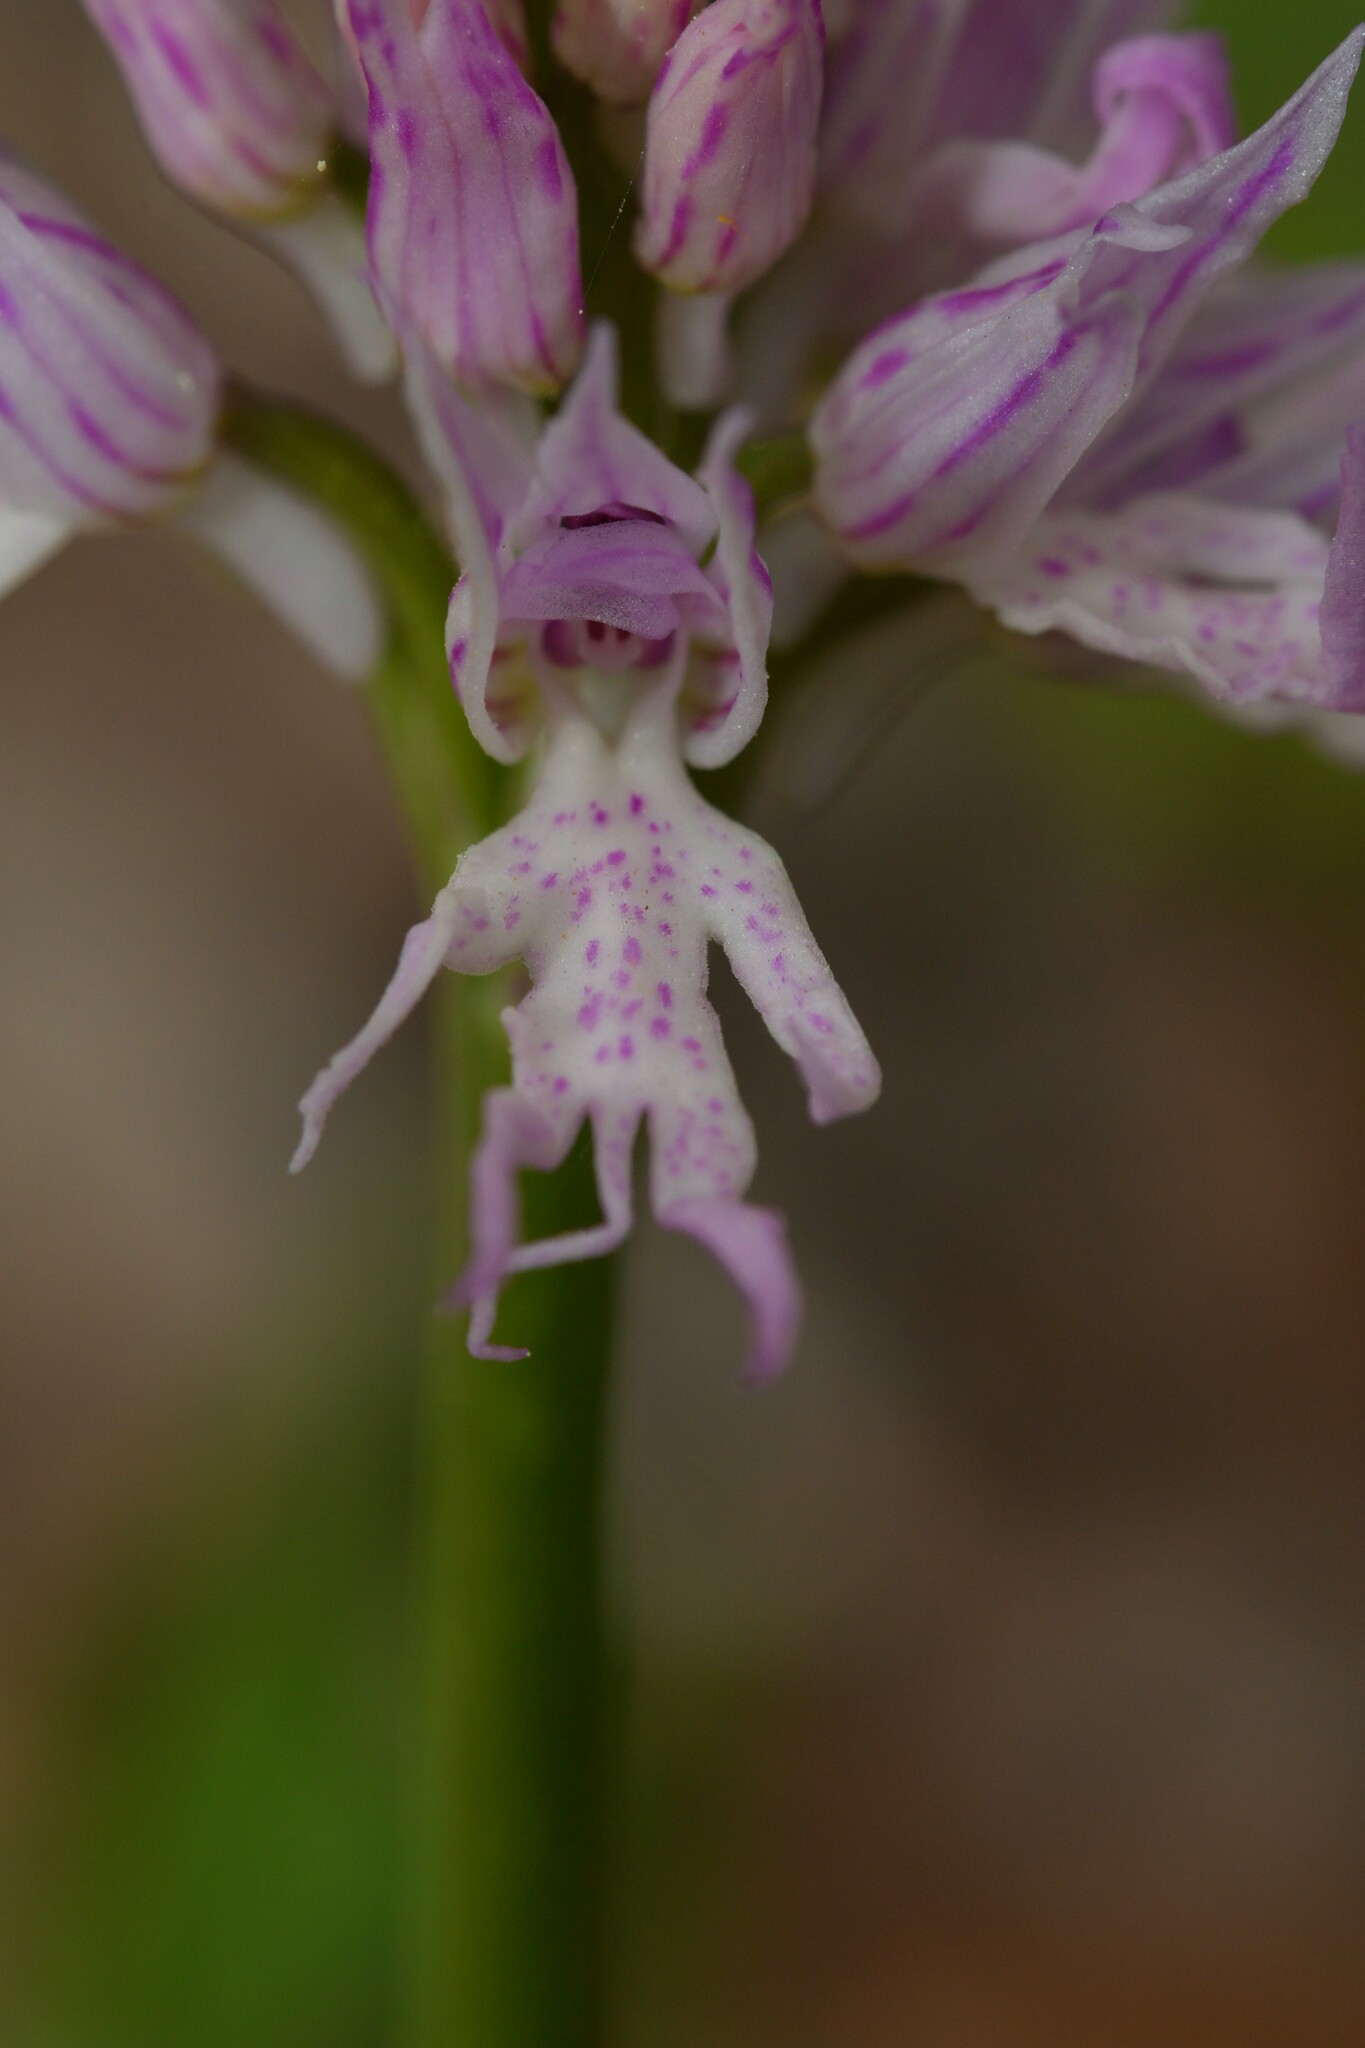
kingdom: Plantae
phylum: Tracheophyta
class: Liliopsida
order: Asparagales
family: Orchidaceae
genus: Orchis
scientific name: Orchis italica
